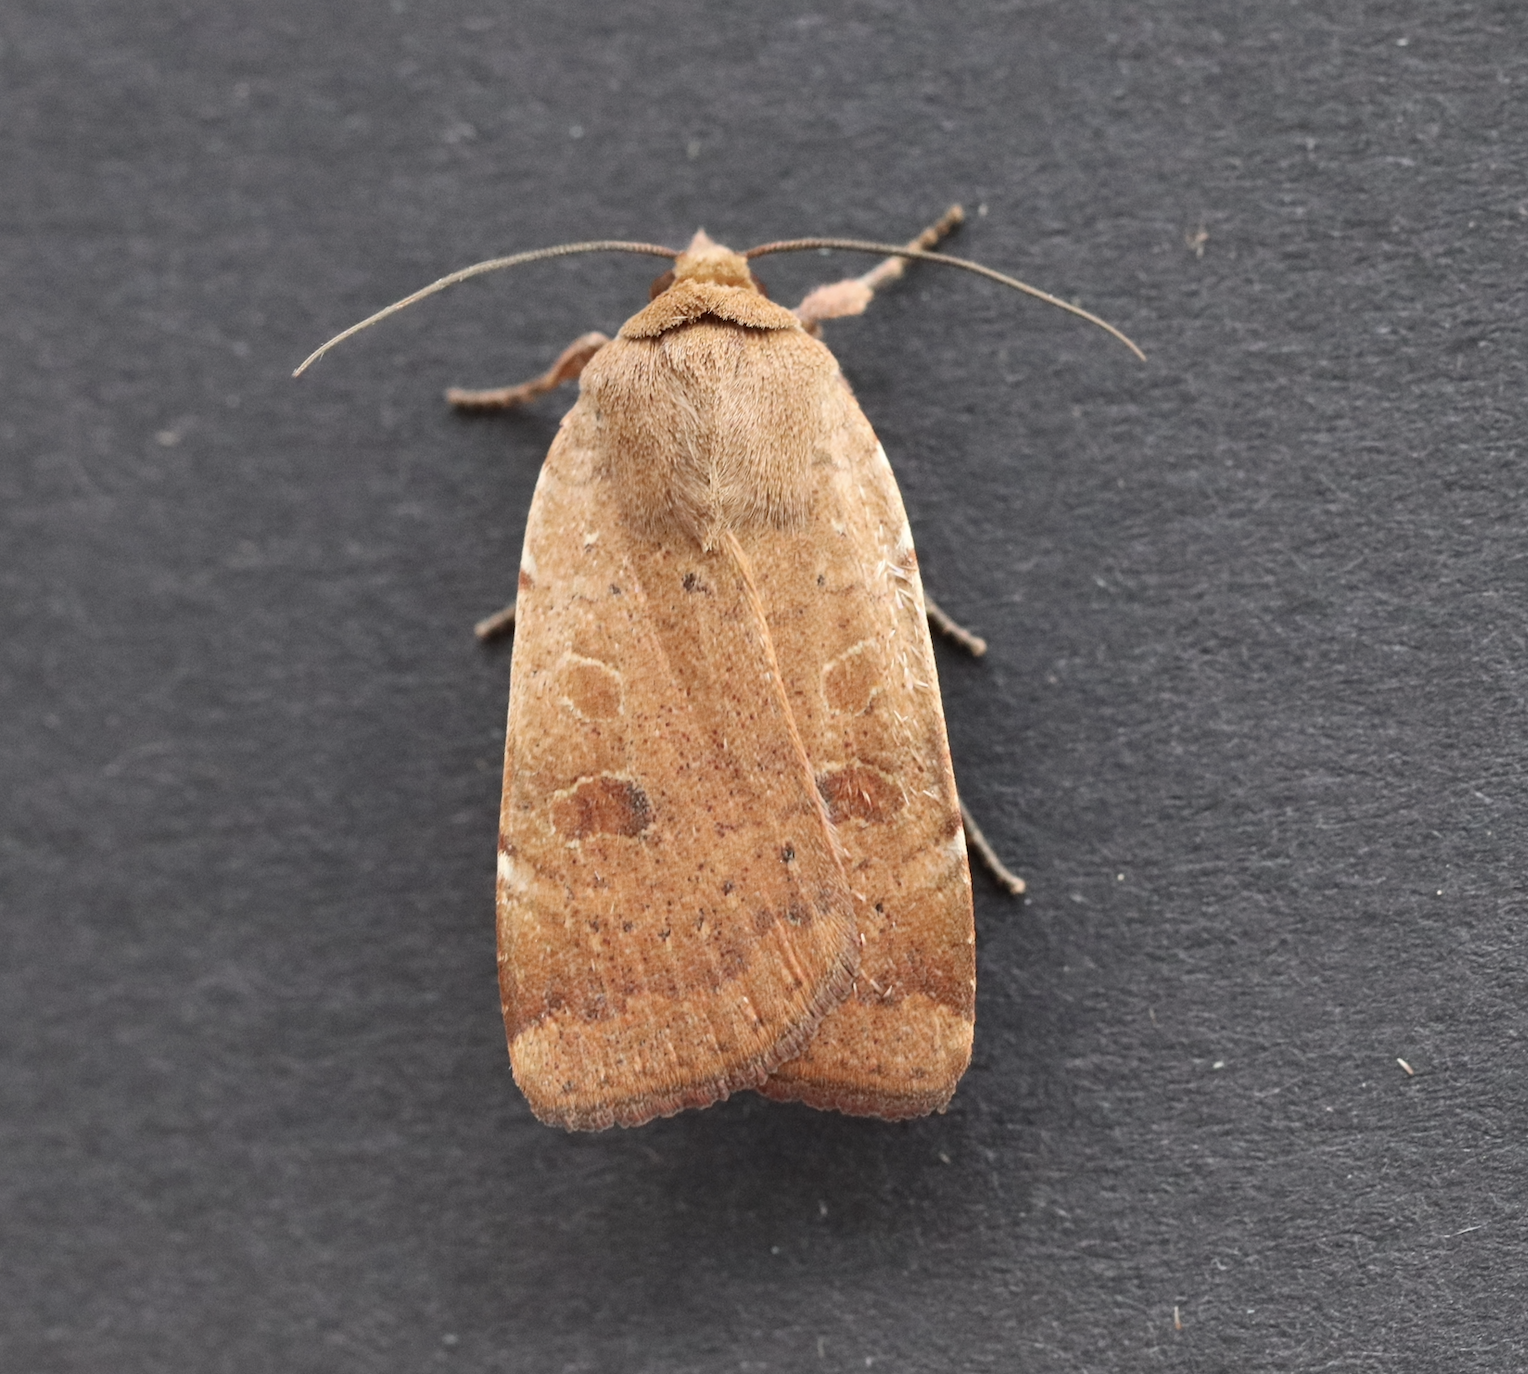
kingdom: Animalia
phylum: Arthropoda
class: Insecta
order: Lepidoptera
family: Noctuidae
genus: Noctua
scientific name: Noctua comes
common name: Lesser yellow underwing
